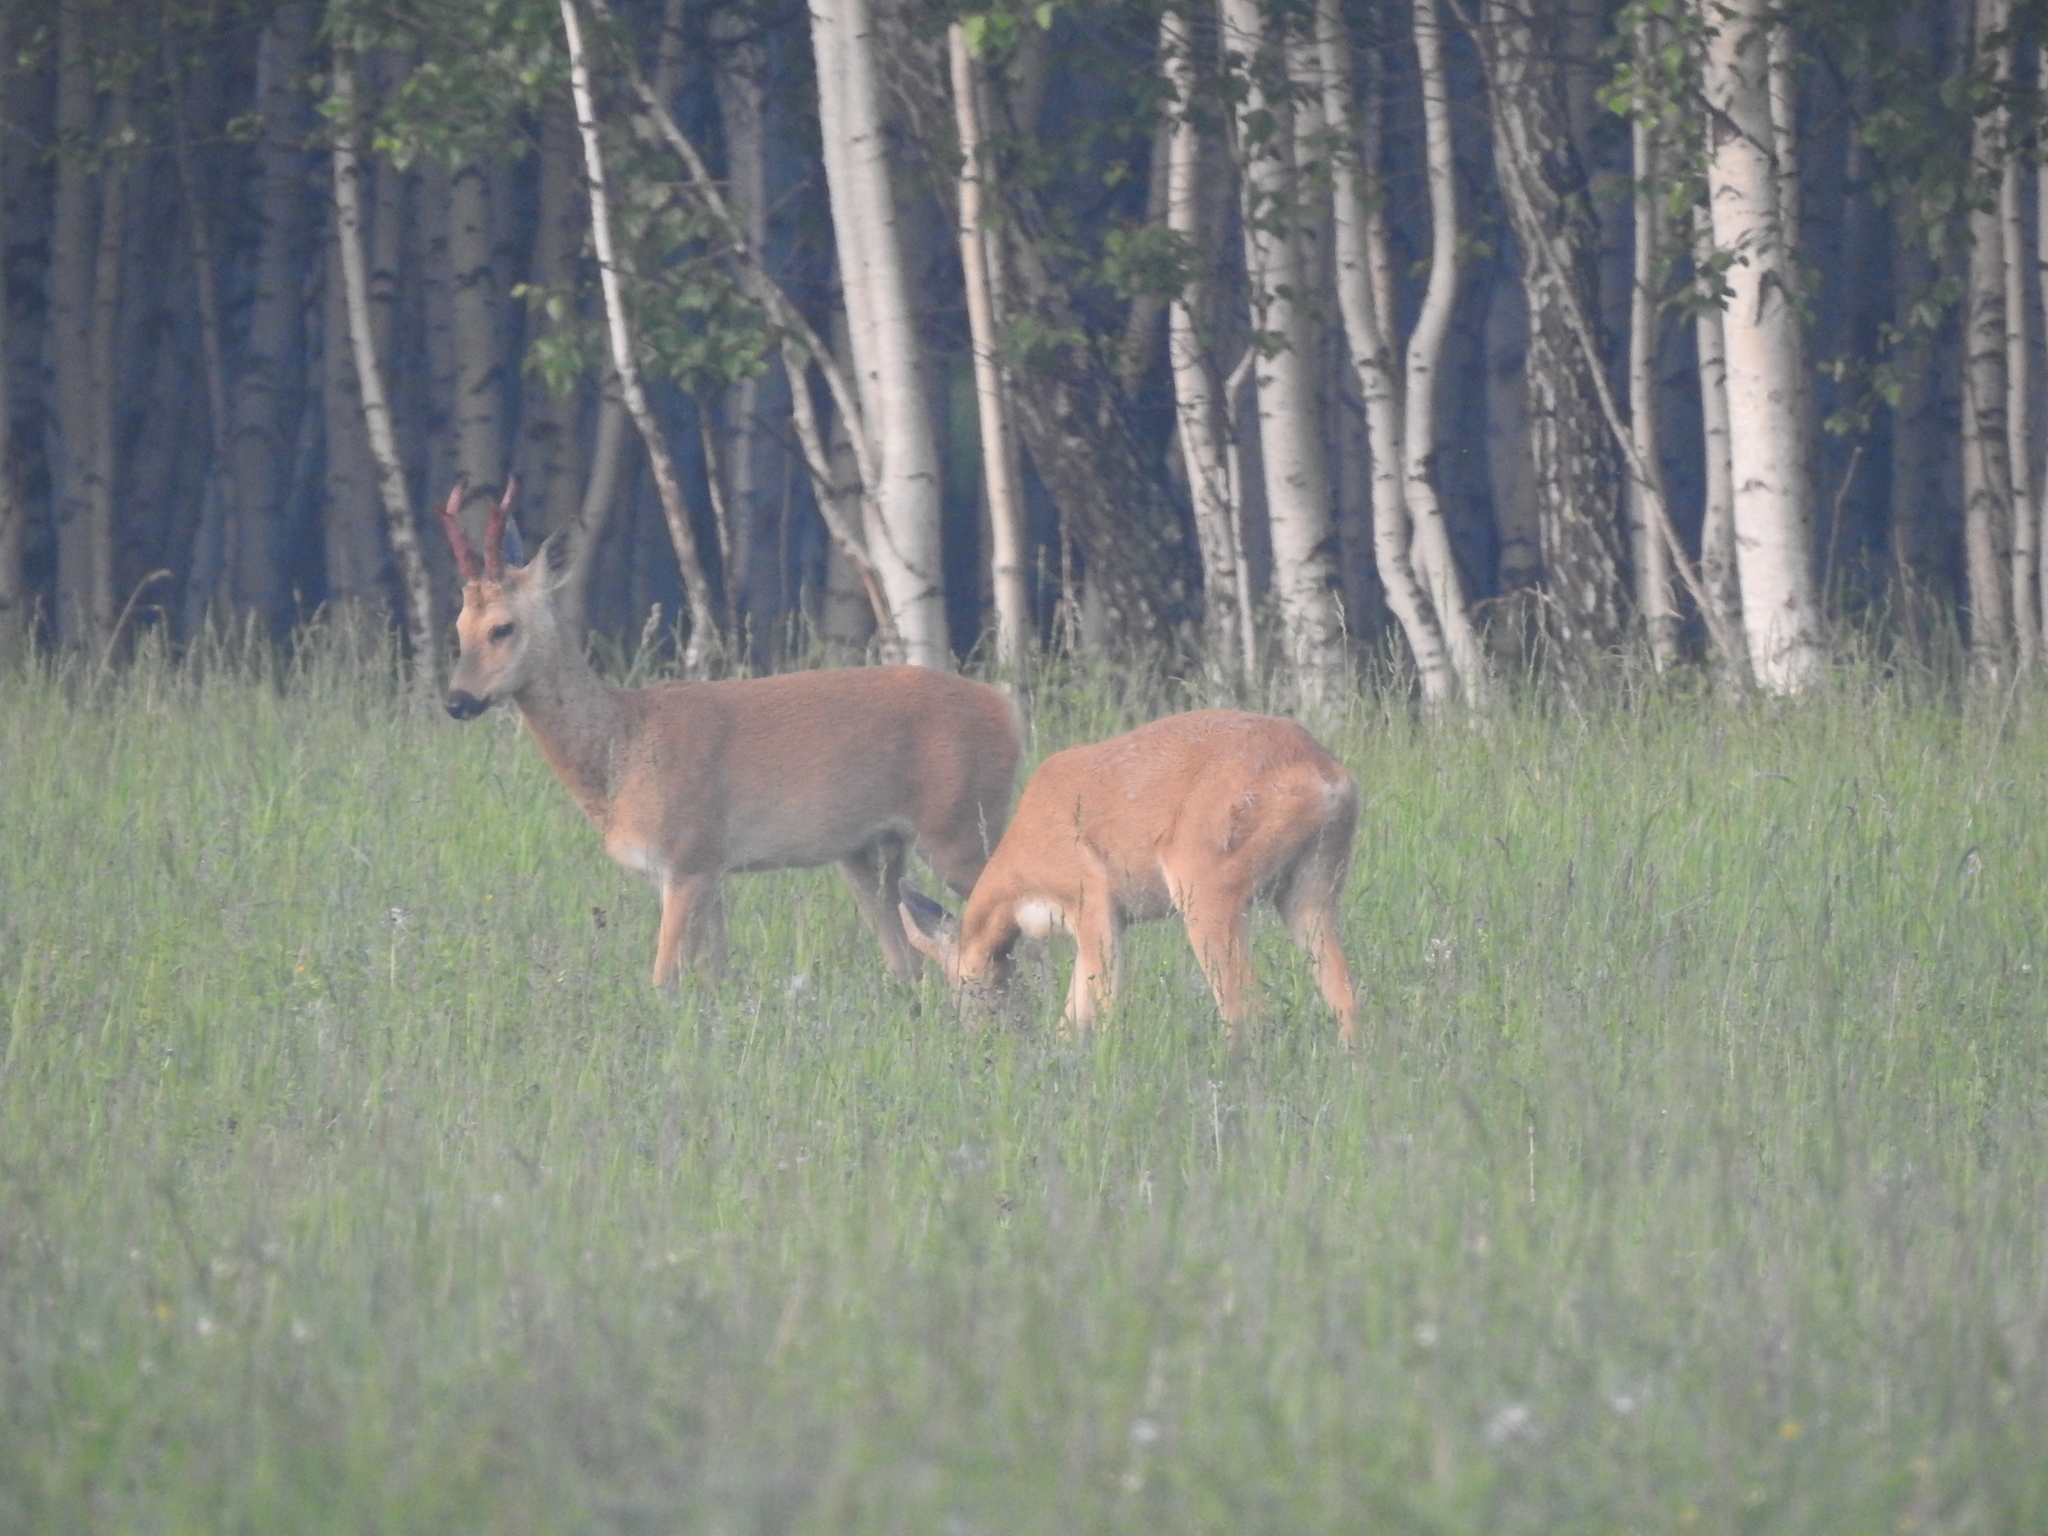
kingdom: Animalia
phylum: Chordata
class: Mammalia
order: Artiodactyla
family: Cervidae
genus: Capreolus
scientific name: Capreolus pygargus
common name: Siberian roe
